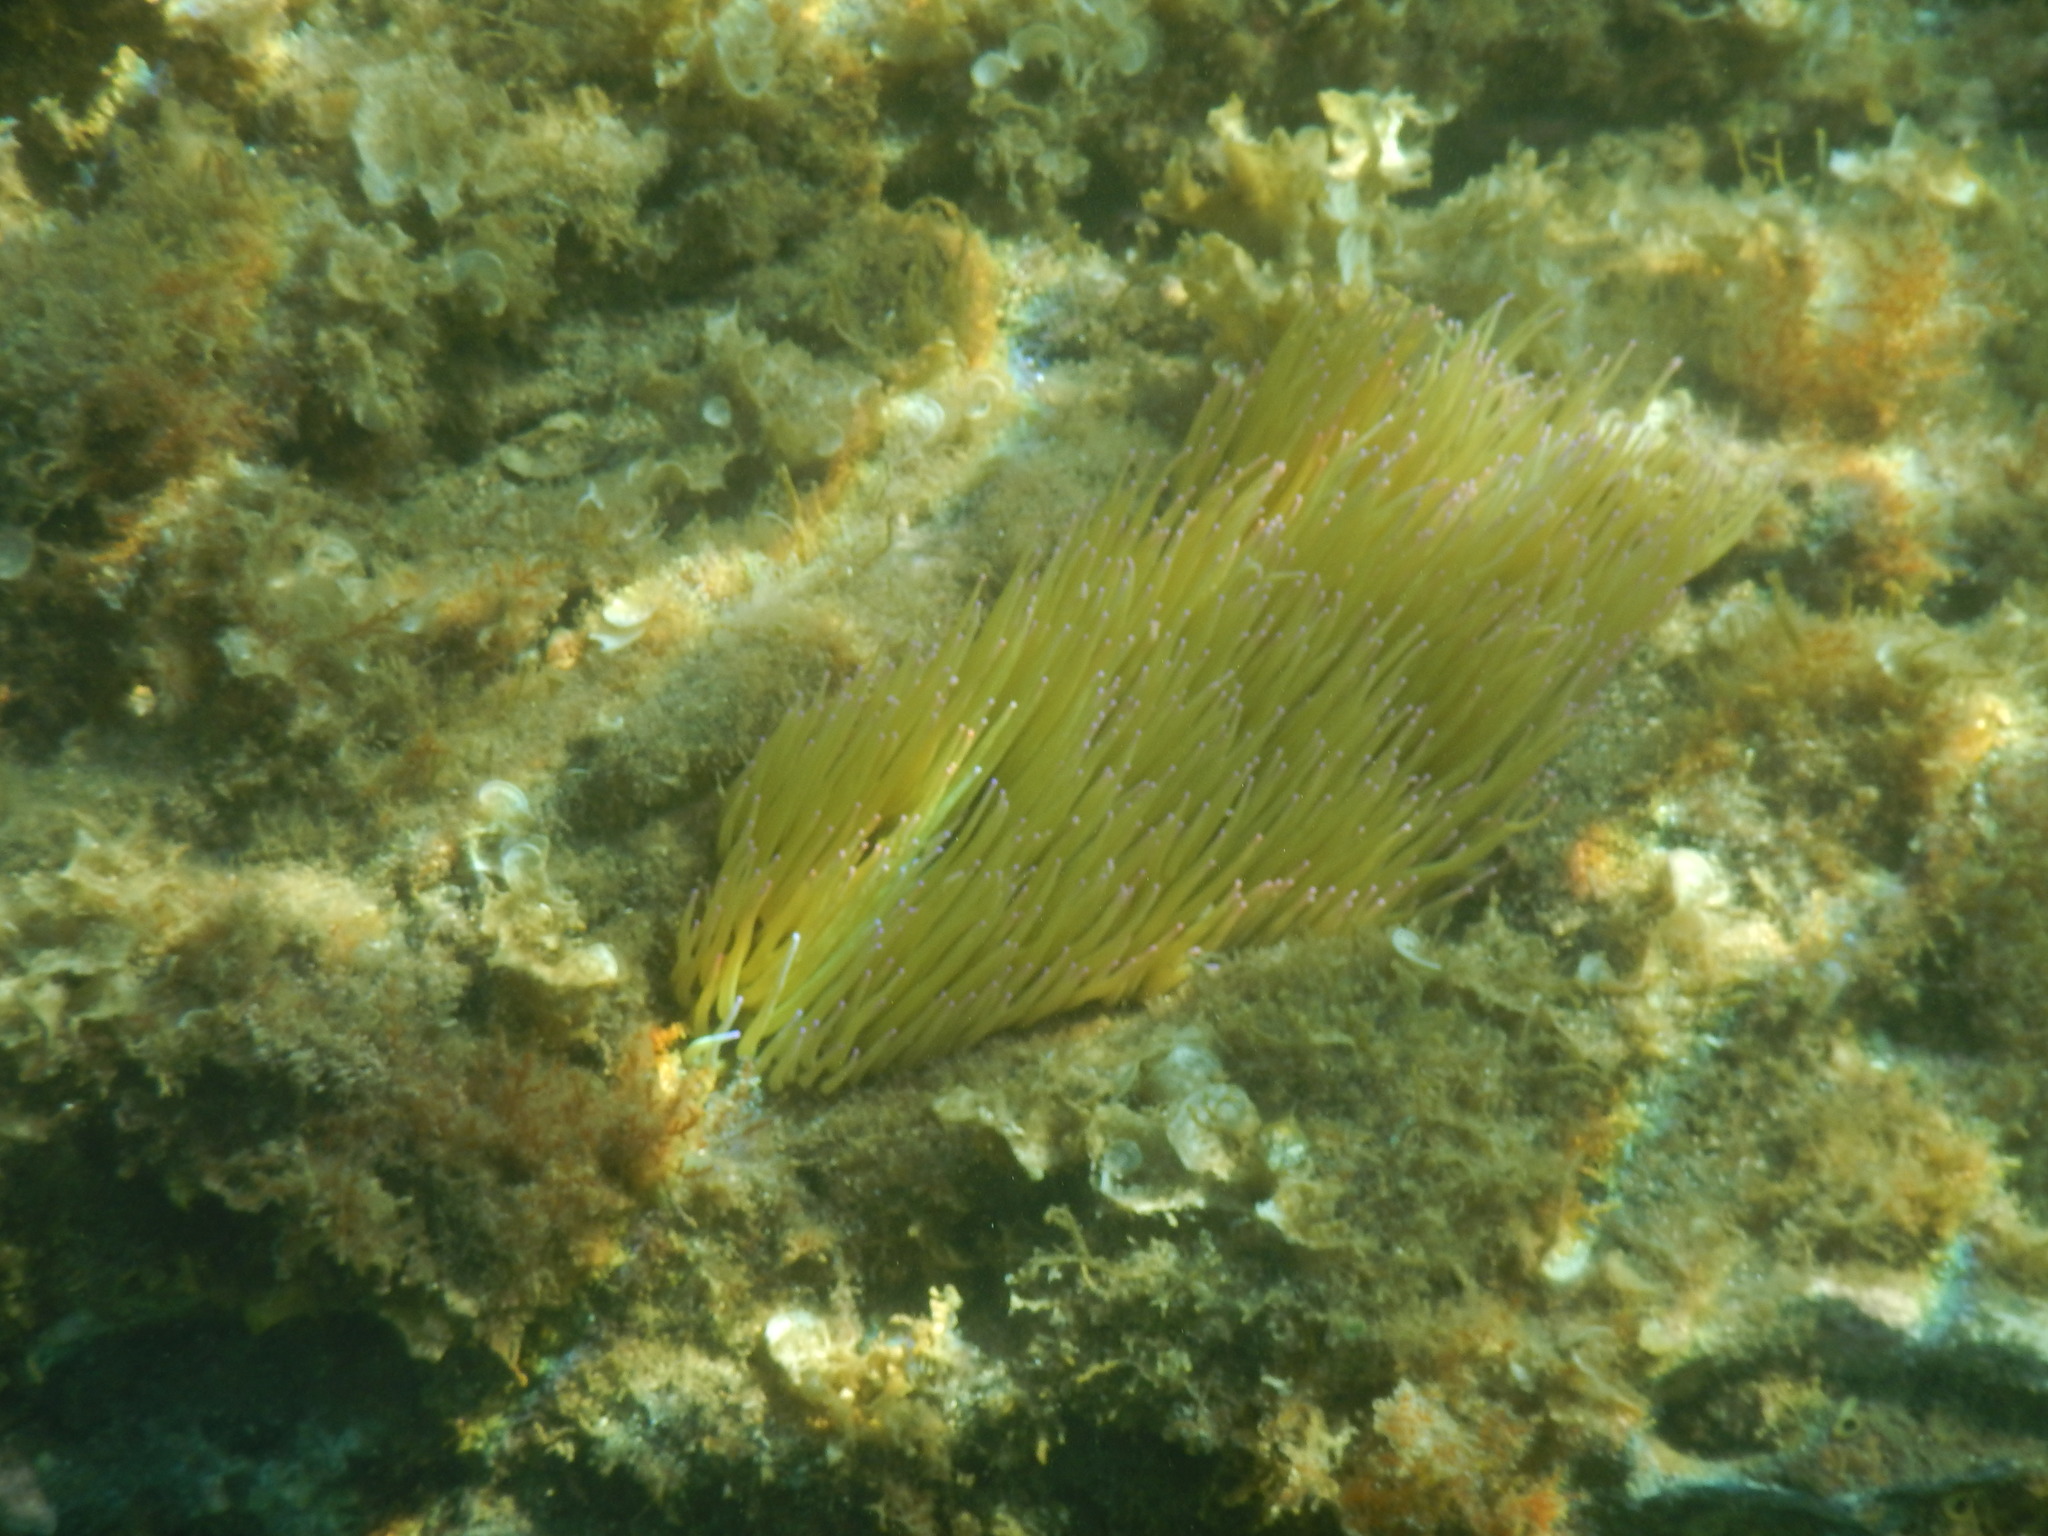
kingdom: Animalia
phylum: Cnidaria
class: Anthozoa
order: Actiniaria
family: Actiniidae
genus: Anemonia
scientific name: Anemonia viridis
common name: Snakelocks anemone
